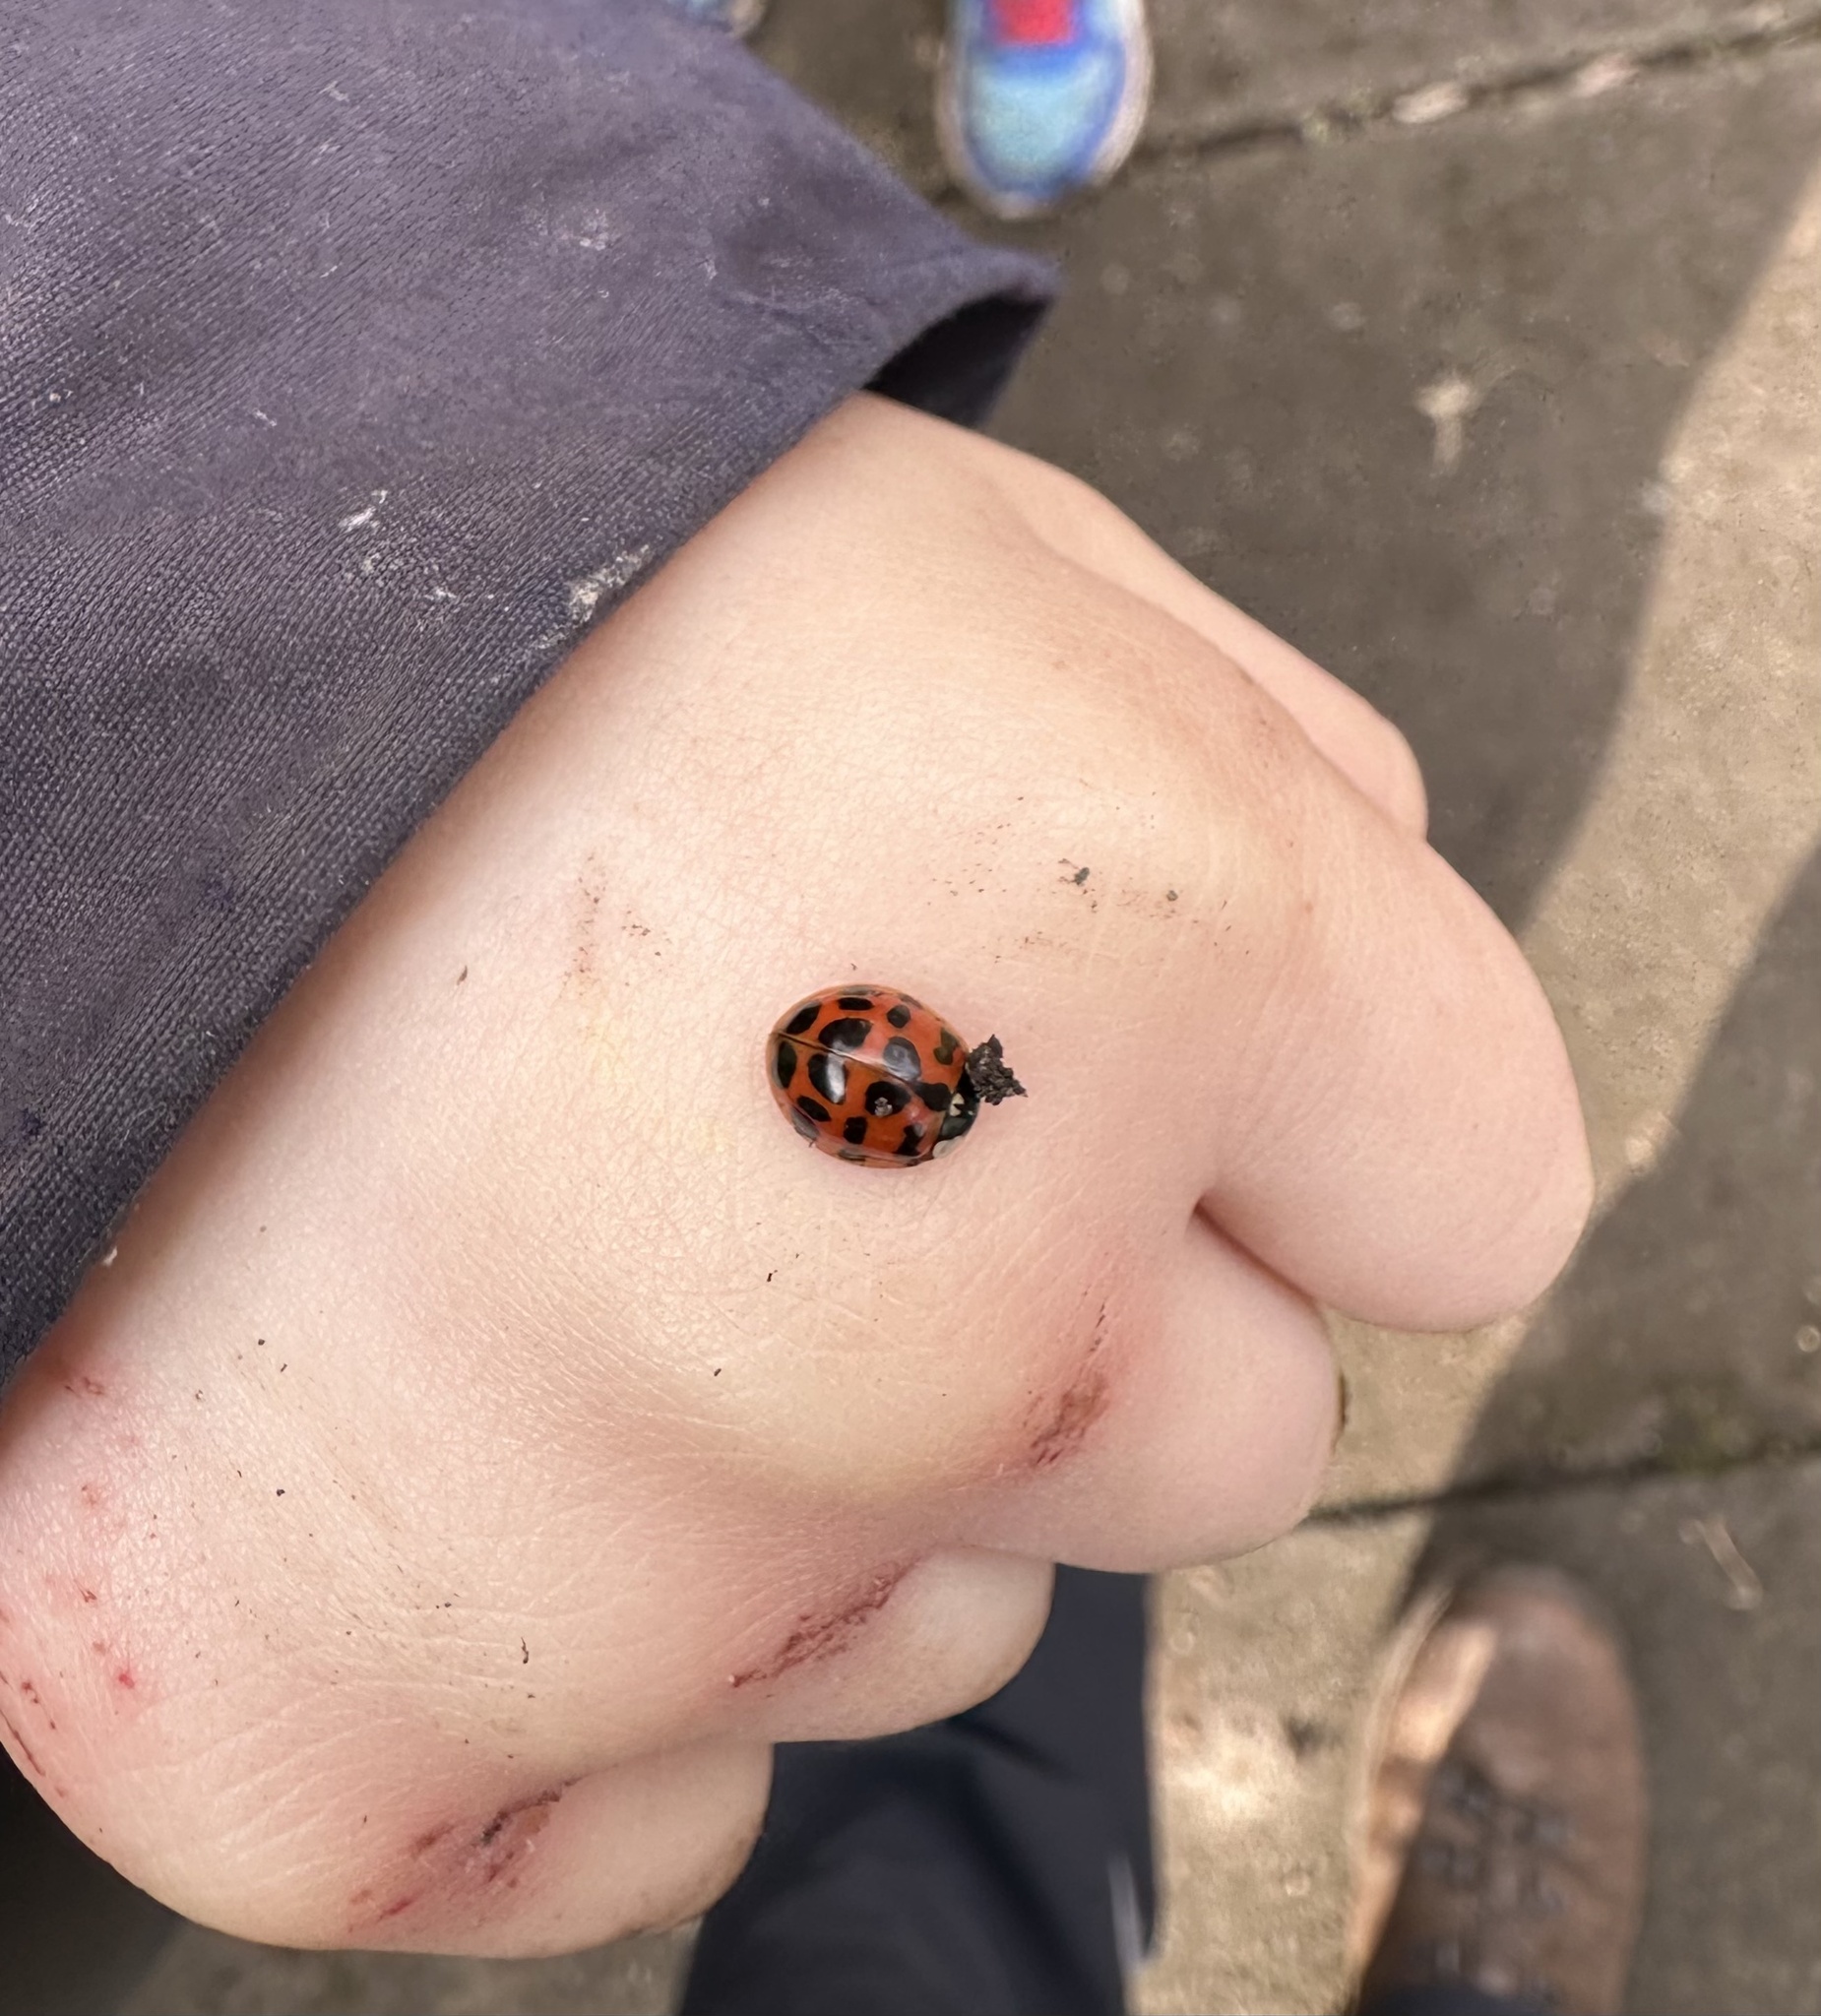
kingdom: Animalia
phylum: Arthropoda
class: Insecta
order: Coleoptera
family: Coccinellidae
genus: Harmonia
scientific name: Harmonia axyridis
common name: Harlequin ladybird
